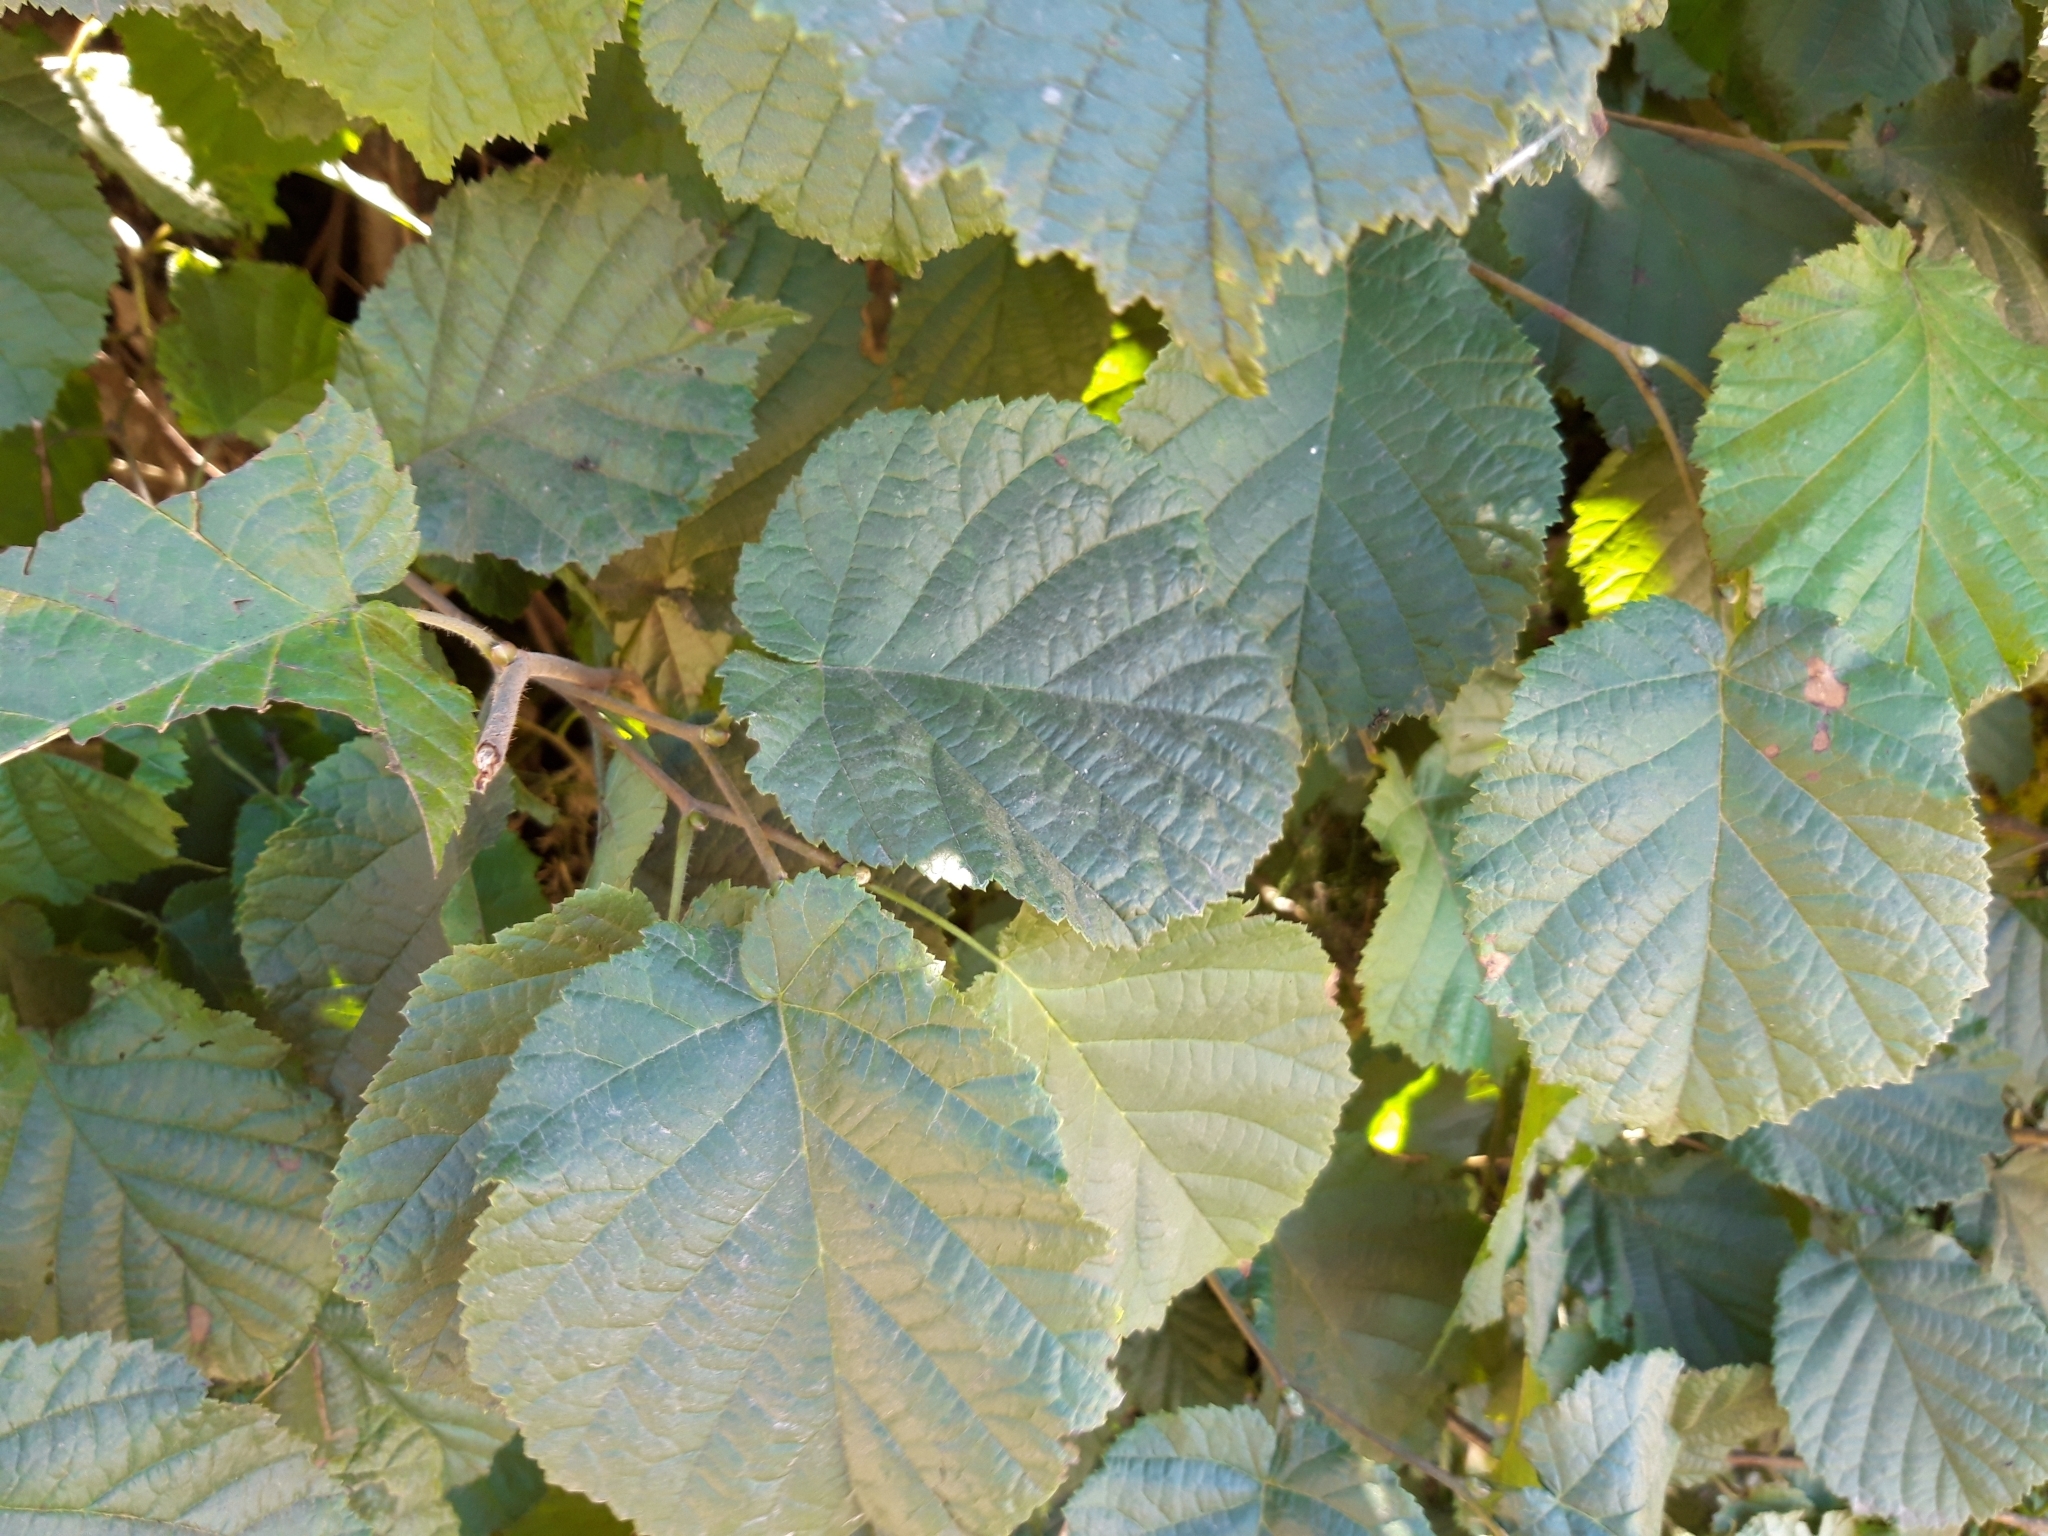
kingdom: Plantae
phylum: Tracheophyta
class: Magnoliopsida
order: Fagales
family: Betulaceae
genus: Corylus
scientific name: Corylus avellana
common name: European hazel
